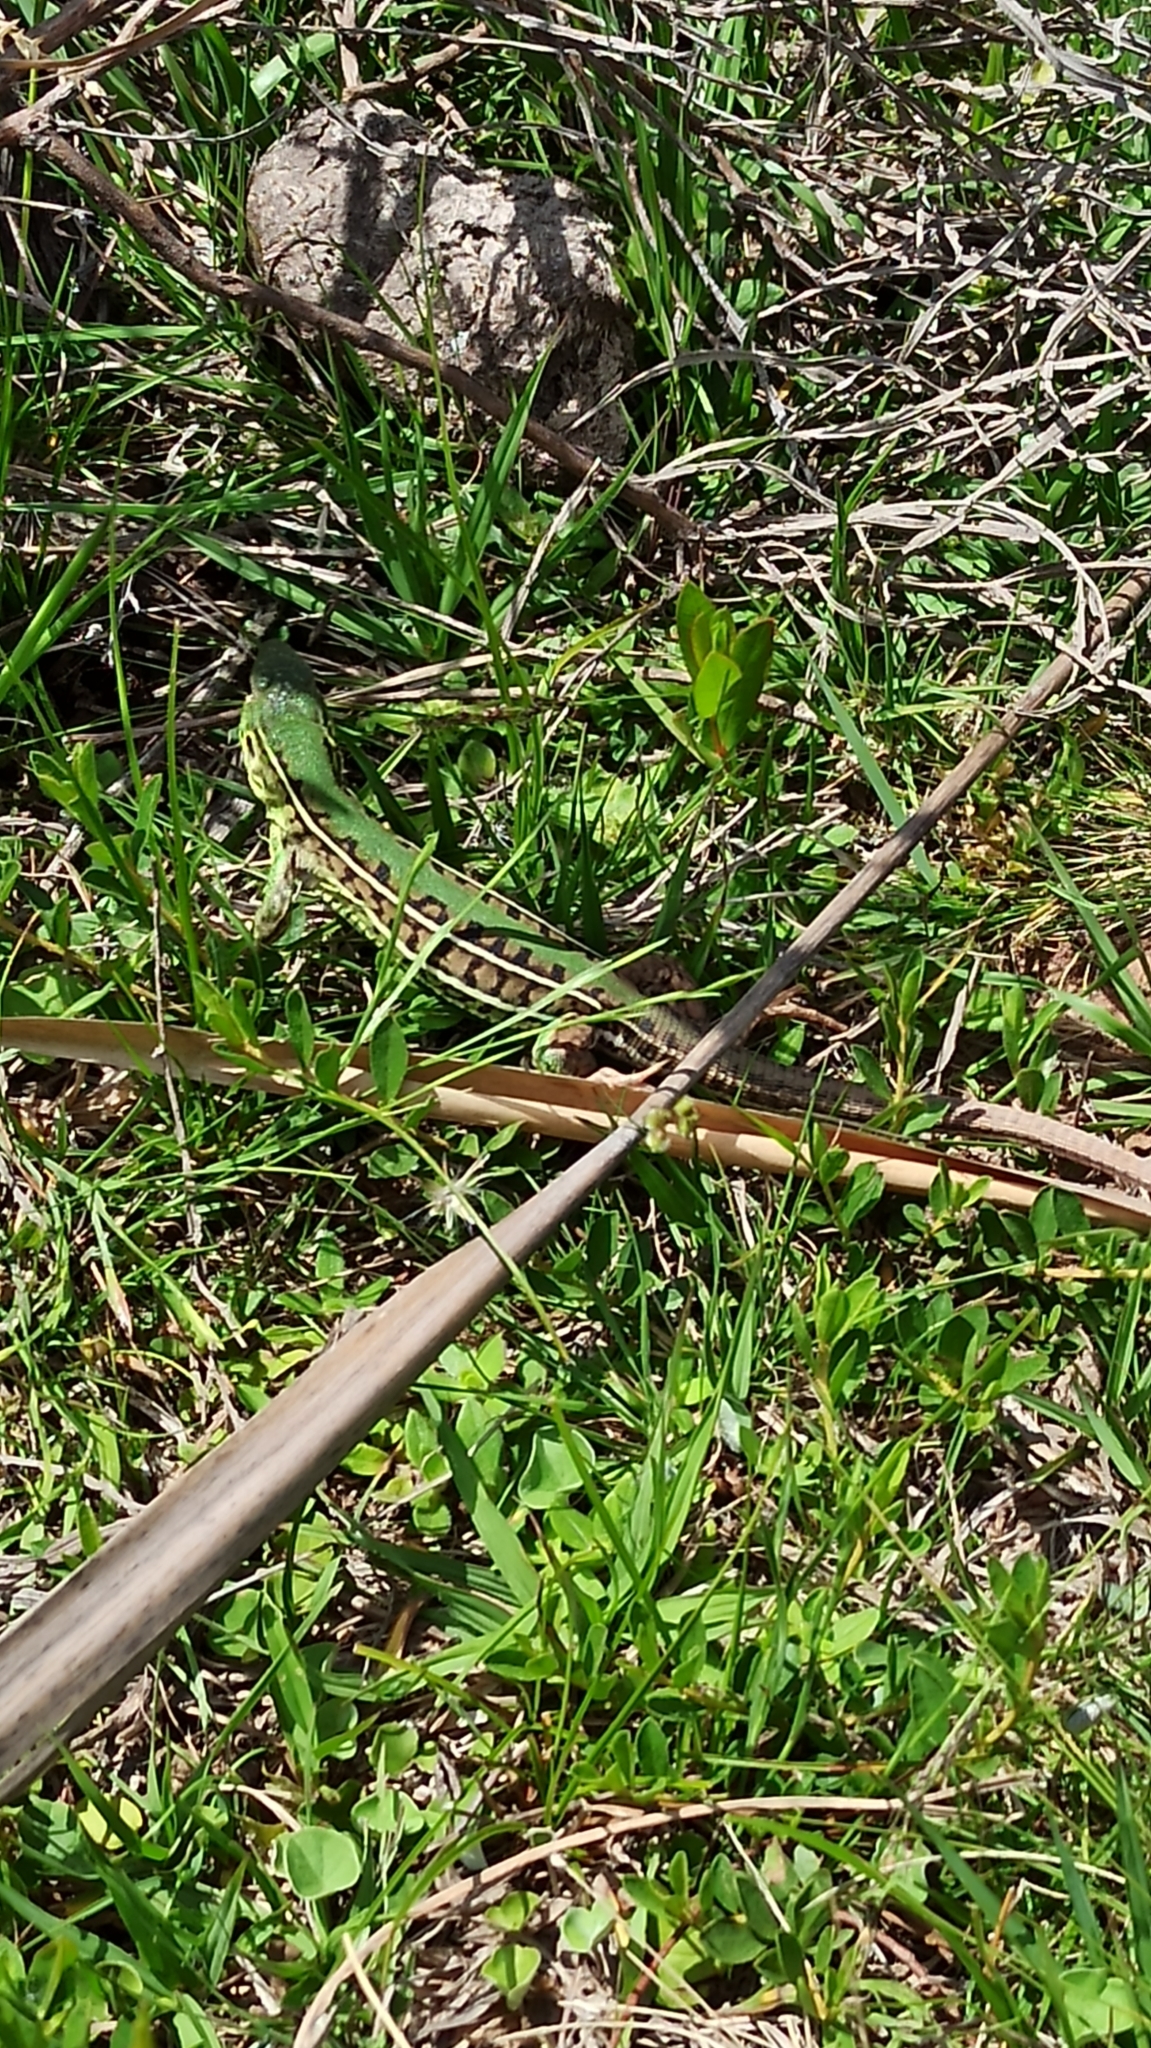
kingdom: Animalia
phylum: Chordata
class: Squamata
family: Teiidae
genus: Teius
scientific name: Teius oculatus
